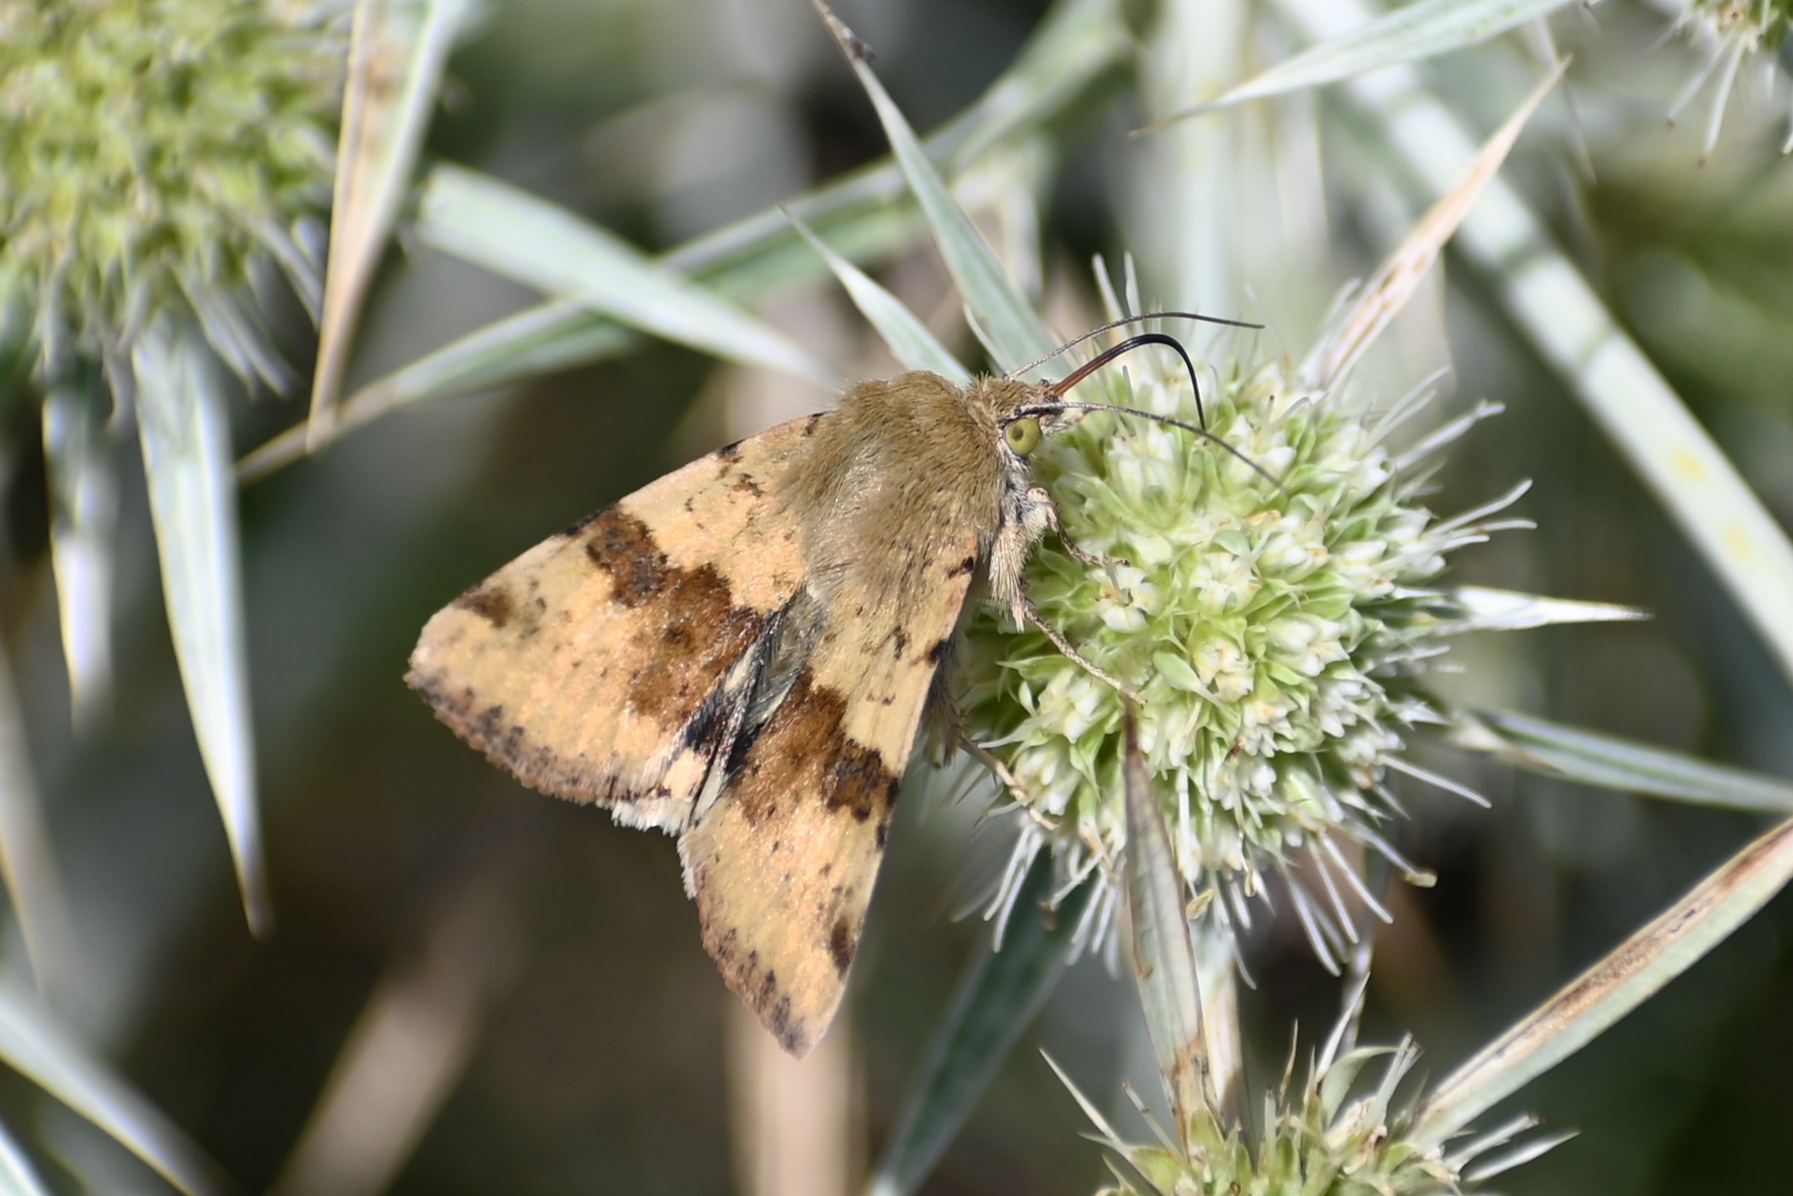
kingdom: Animalia
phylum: Arthropoda
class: Insecta
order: Lepidoptera
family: Noctuidae
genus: Heliothis
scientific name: Heliothis viriplaca
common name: Marbled clover
